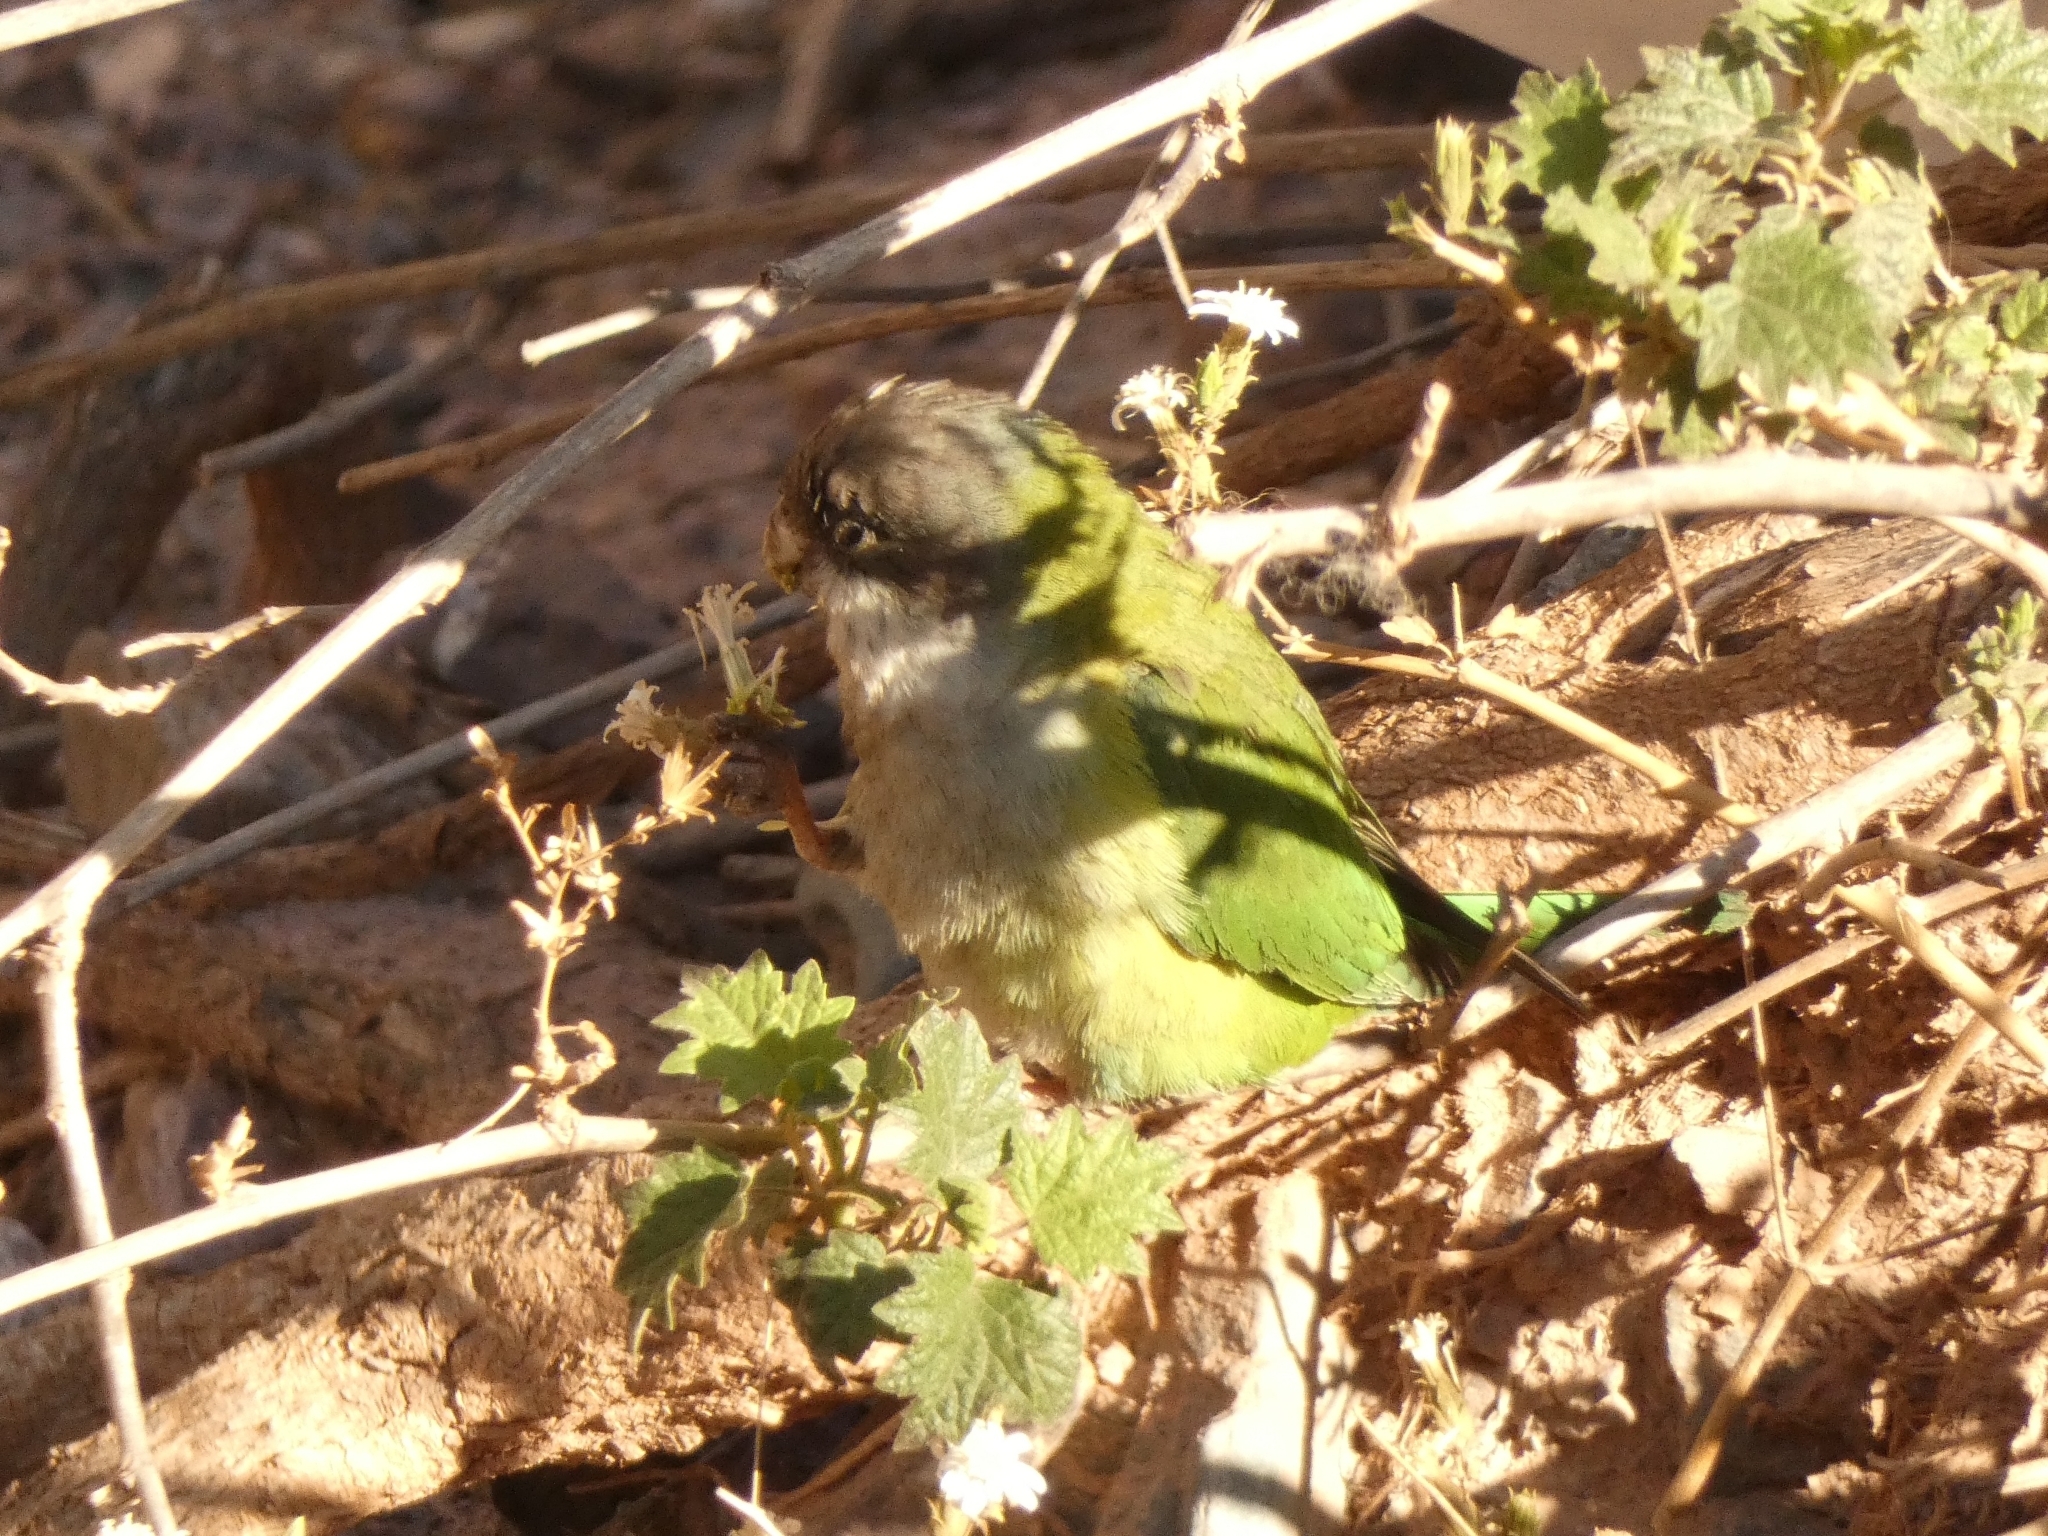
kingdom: Animalia
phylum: Chordata
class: Aves
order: Psittaciformes
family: Psittacidae
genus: Psilopsiagon
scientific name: Psilopsiagon aymara
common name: Grey-hooded parakeet
